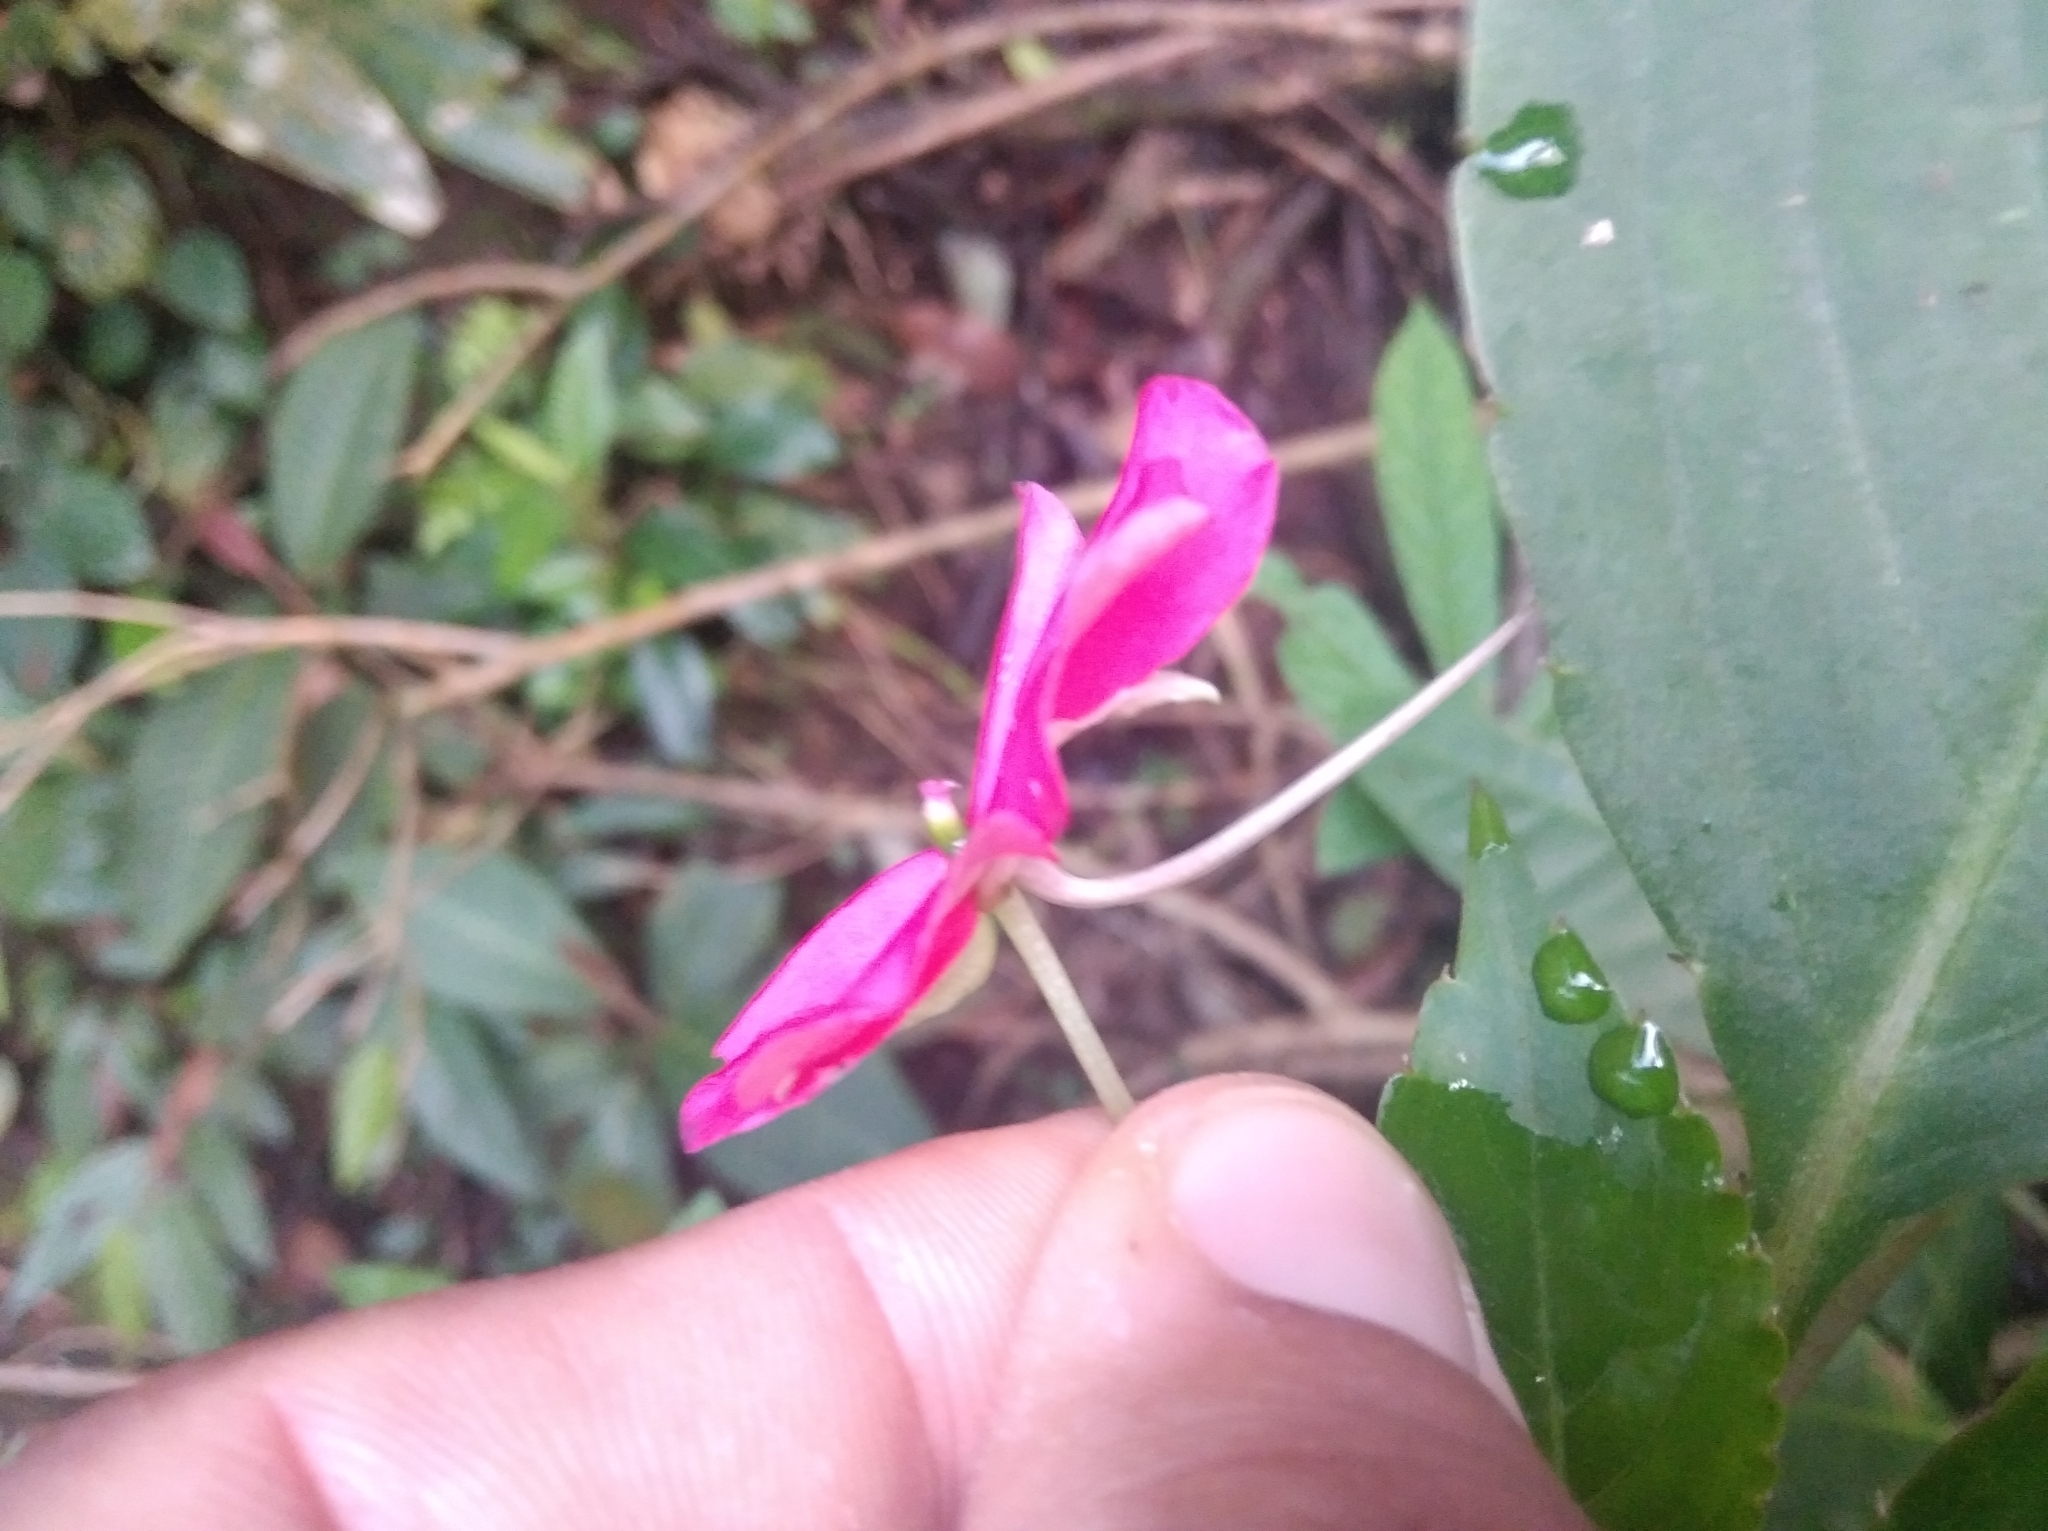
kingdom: Plantae
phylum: Tracheophyta
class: Magnoliopsida
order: Ericales
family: Balsaminaceae
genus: Impatiens
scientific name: Impatiens walleriana
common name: Buzzy lizzy
